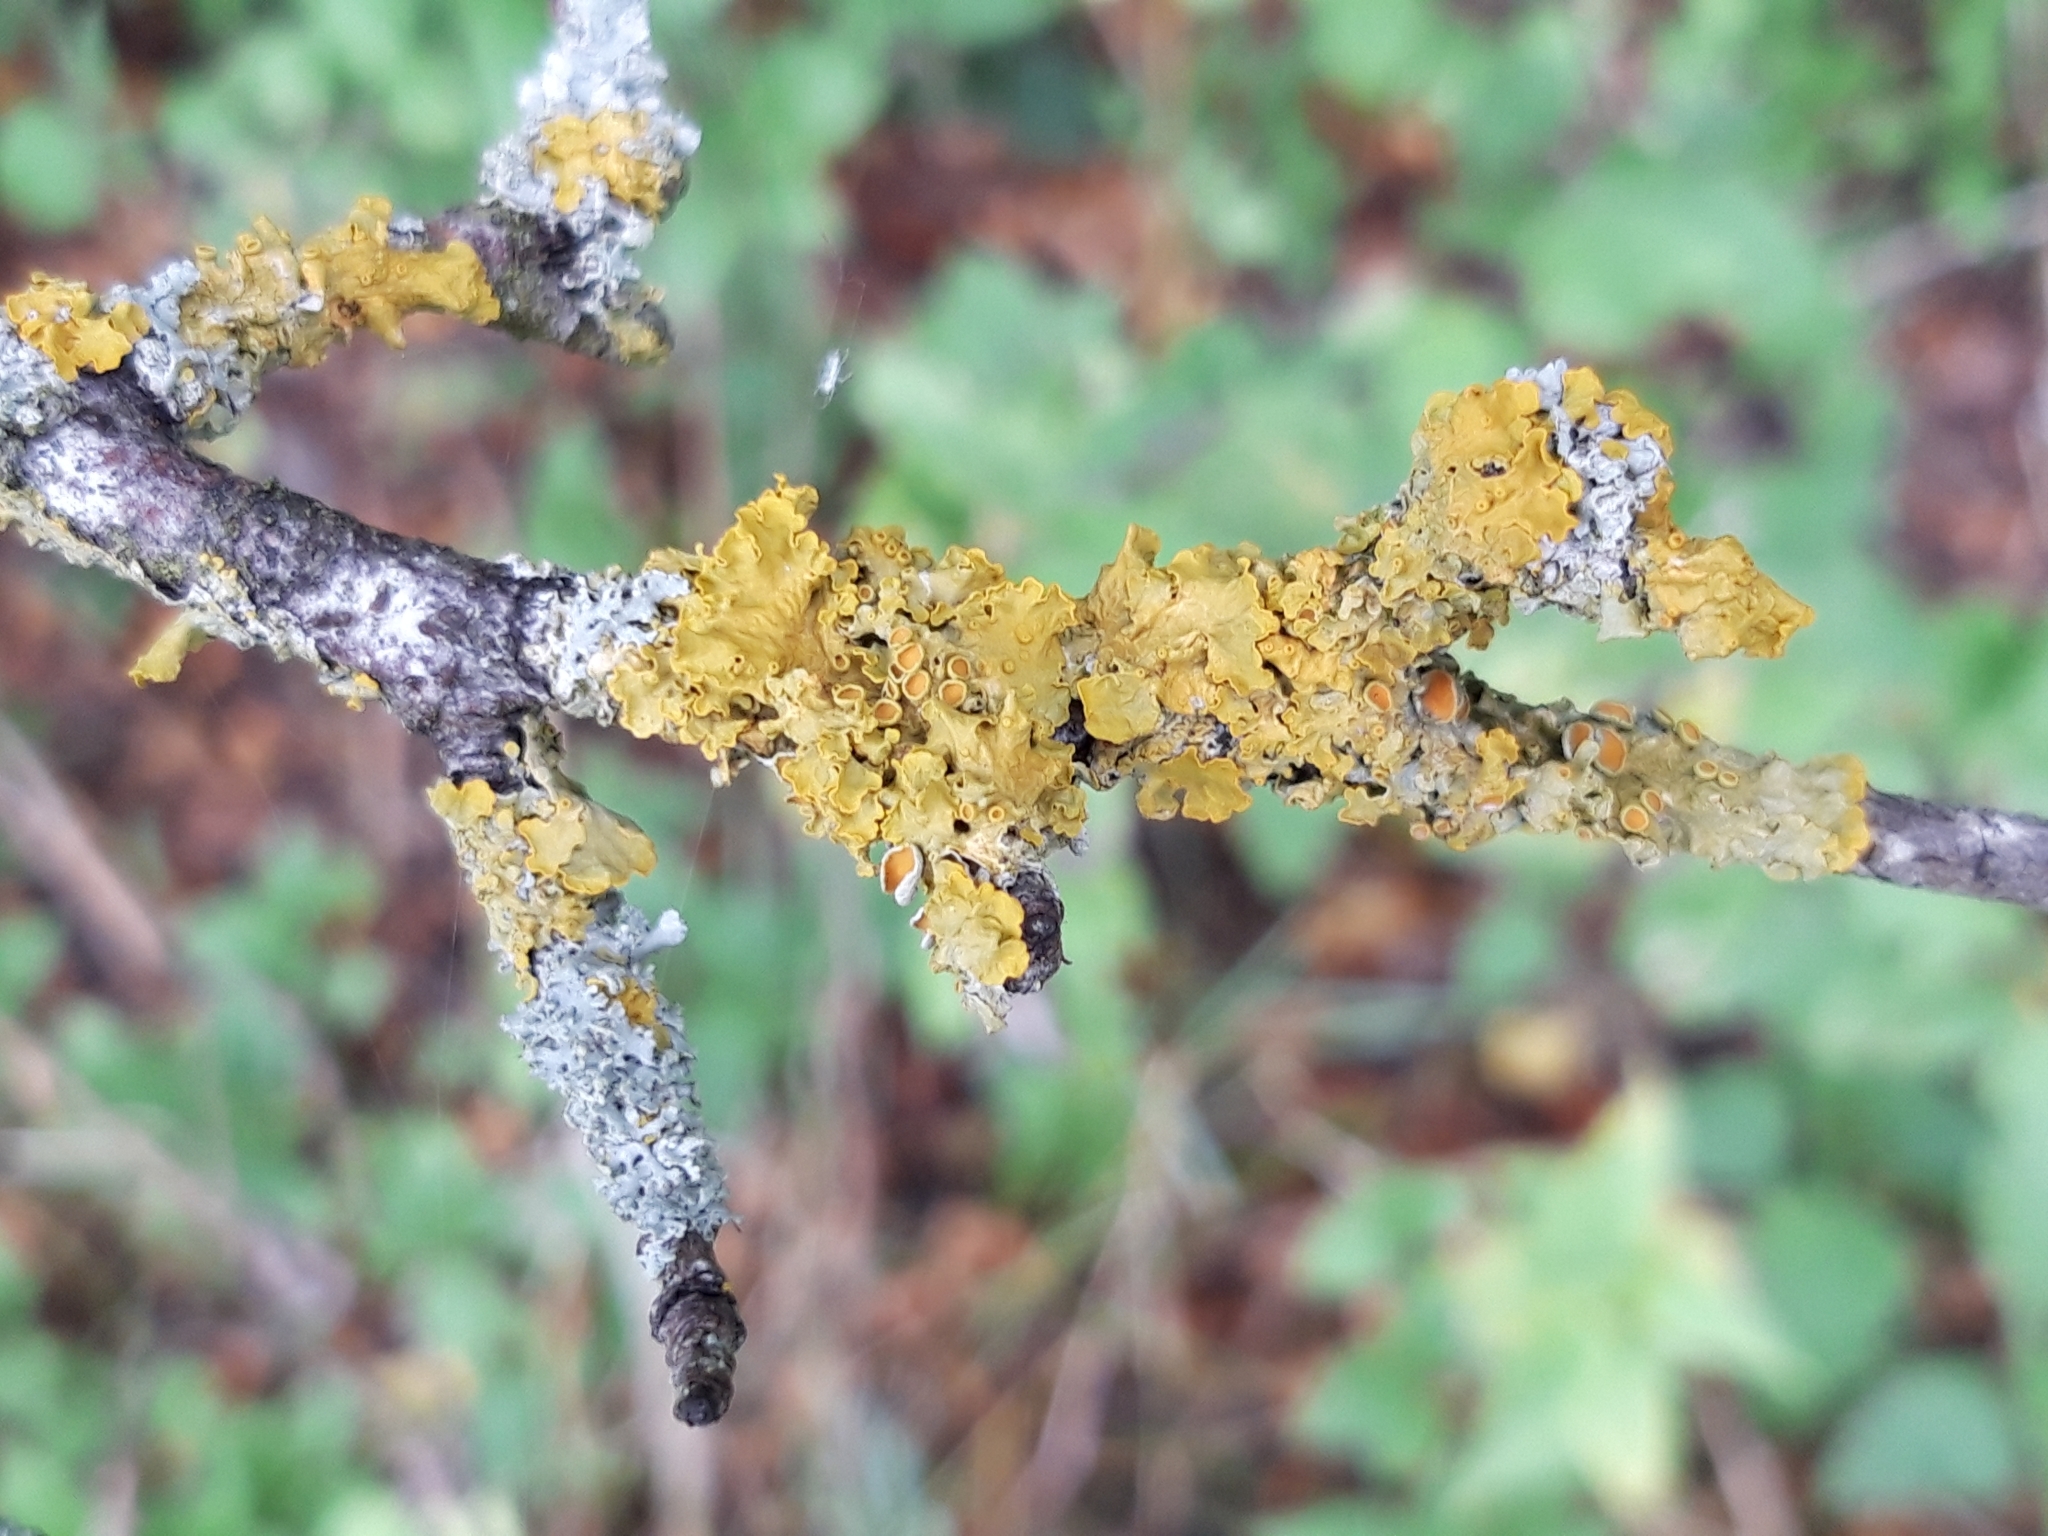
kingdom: Fungi
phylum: Ascomycota
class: Lecanoromycetes
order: Teloschistales
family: Teloschistaceae
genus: Xanthoria
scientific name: Xanthoria parietina
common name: Common orange lichen
